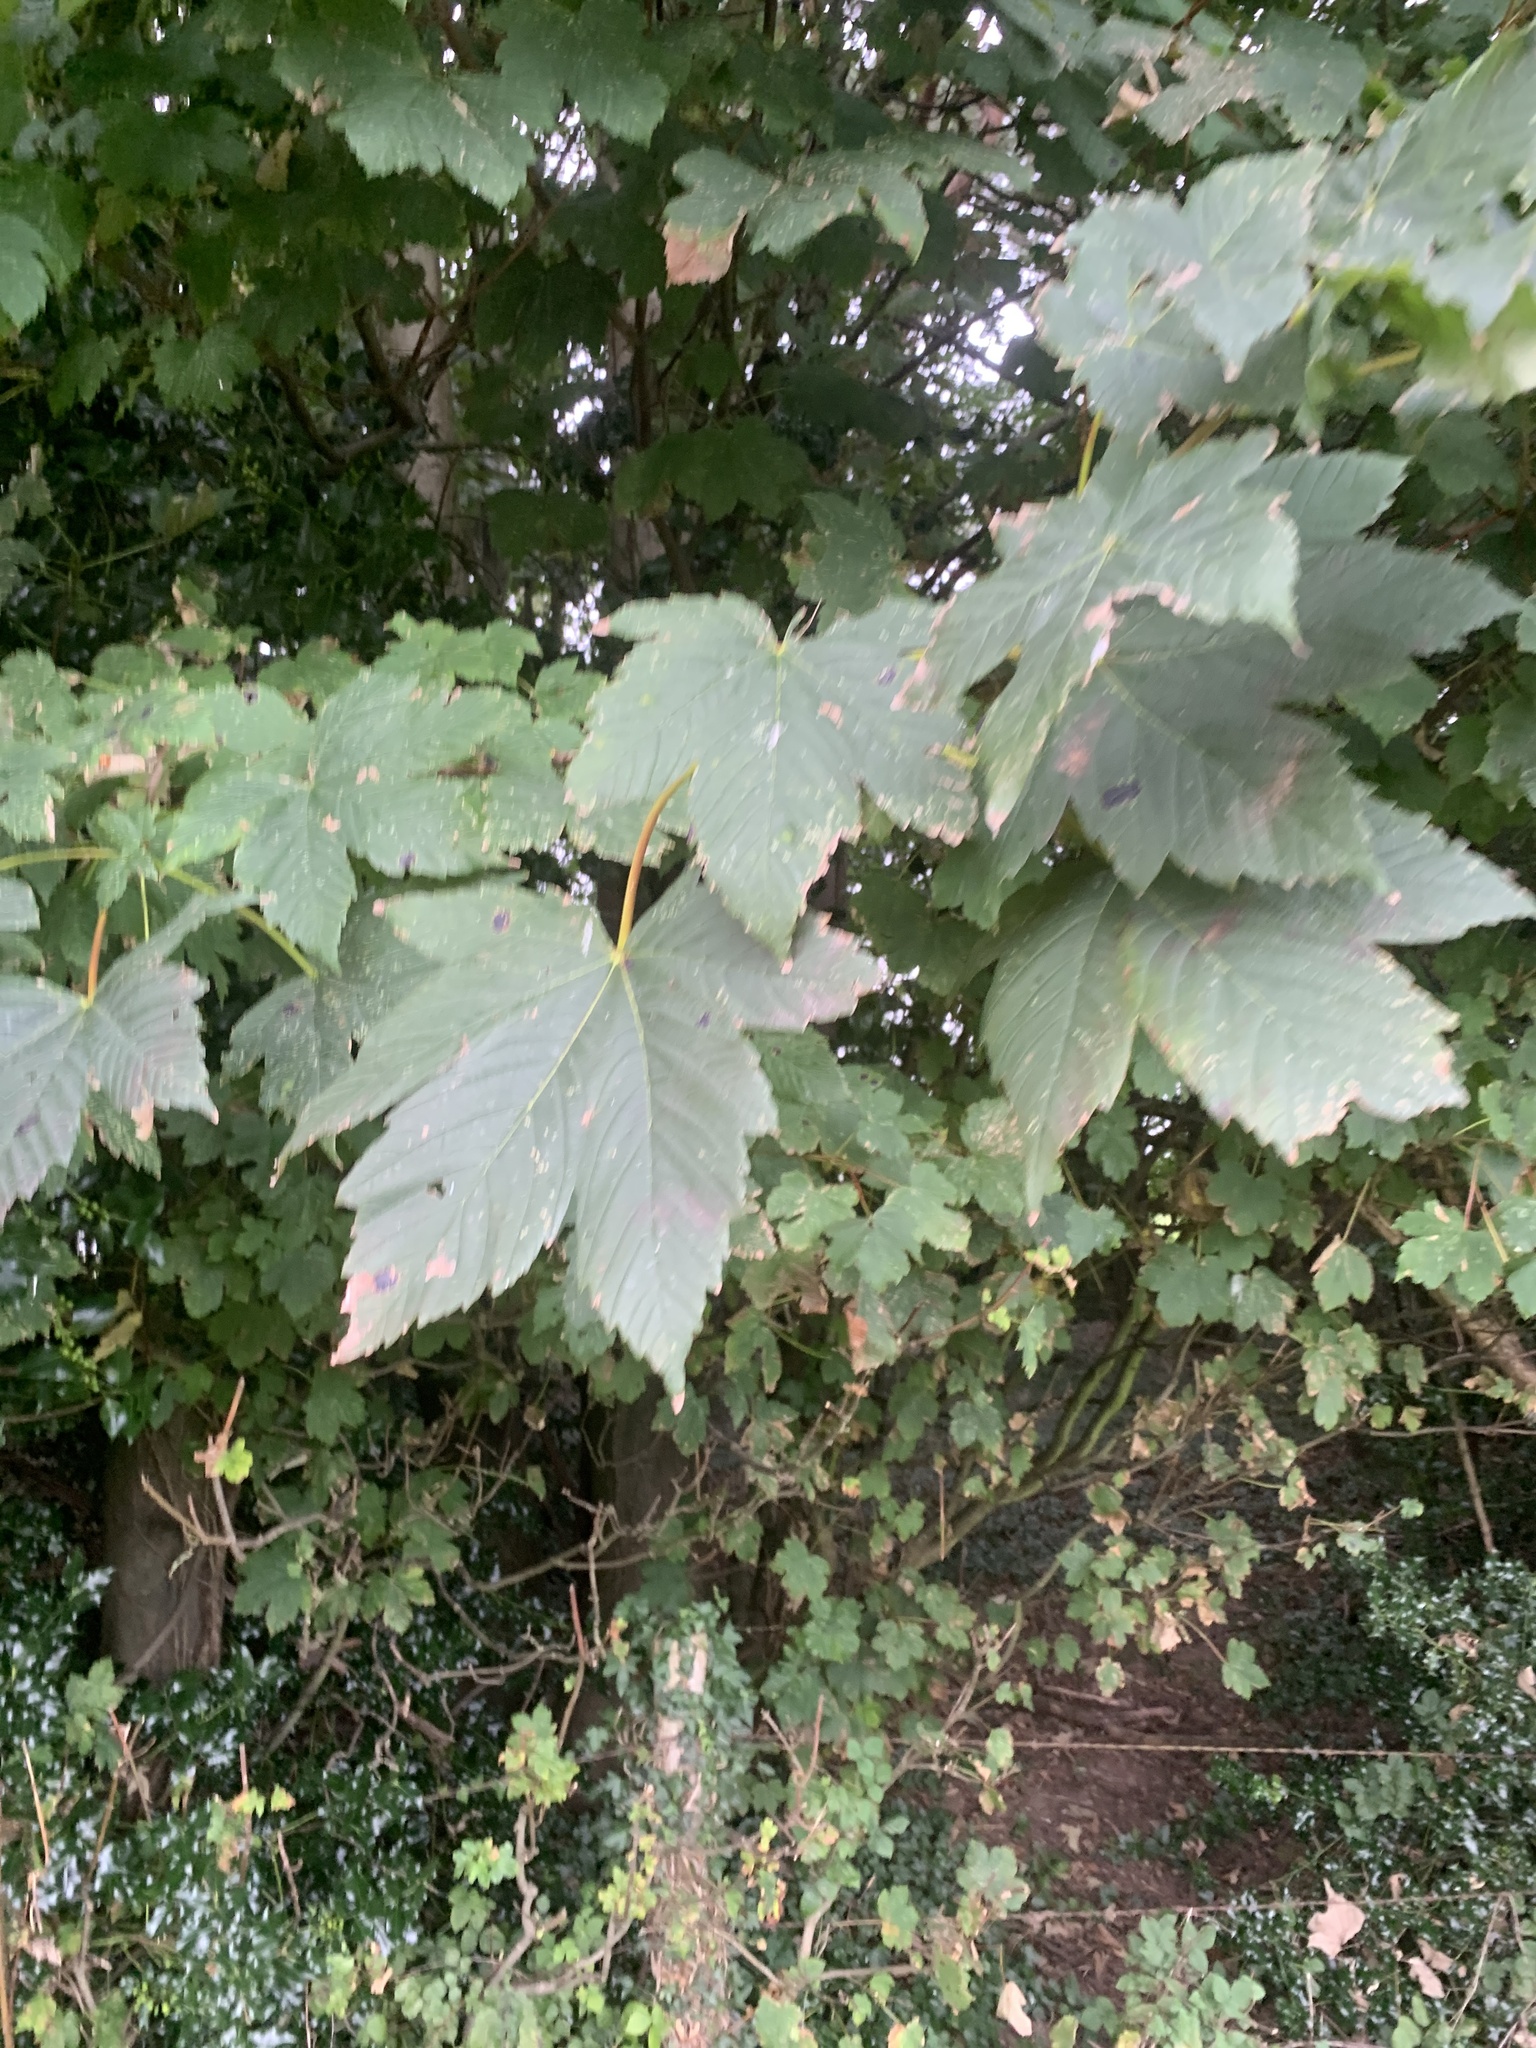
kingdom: Plantae
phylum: Tracheophyta
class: Magnoliopsida
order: Sapindales
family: Sapindaceae
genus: Acer
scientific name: Acer pseudoplatanus
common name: Sycamore
